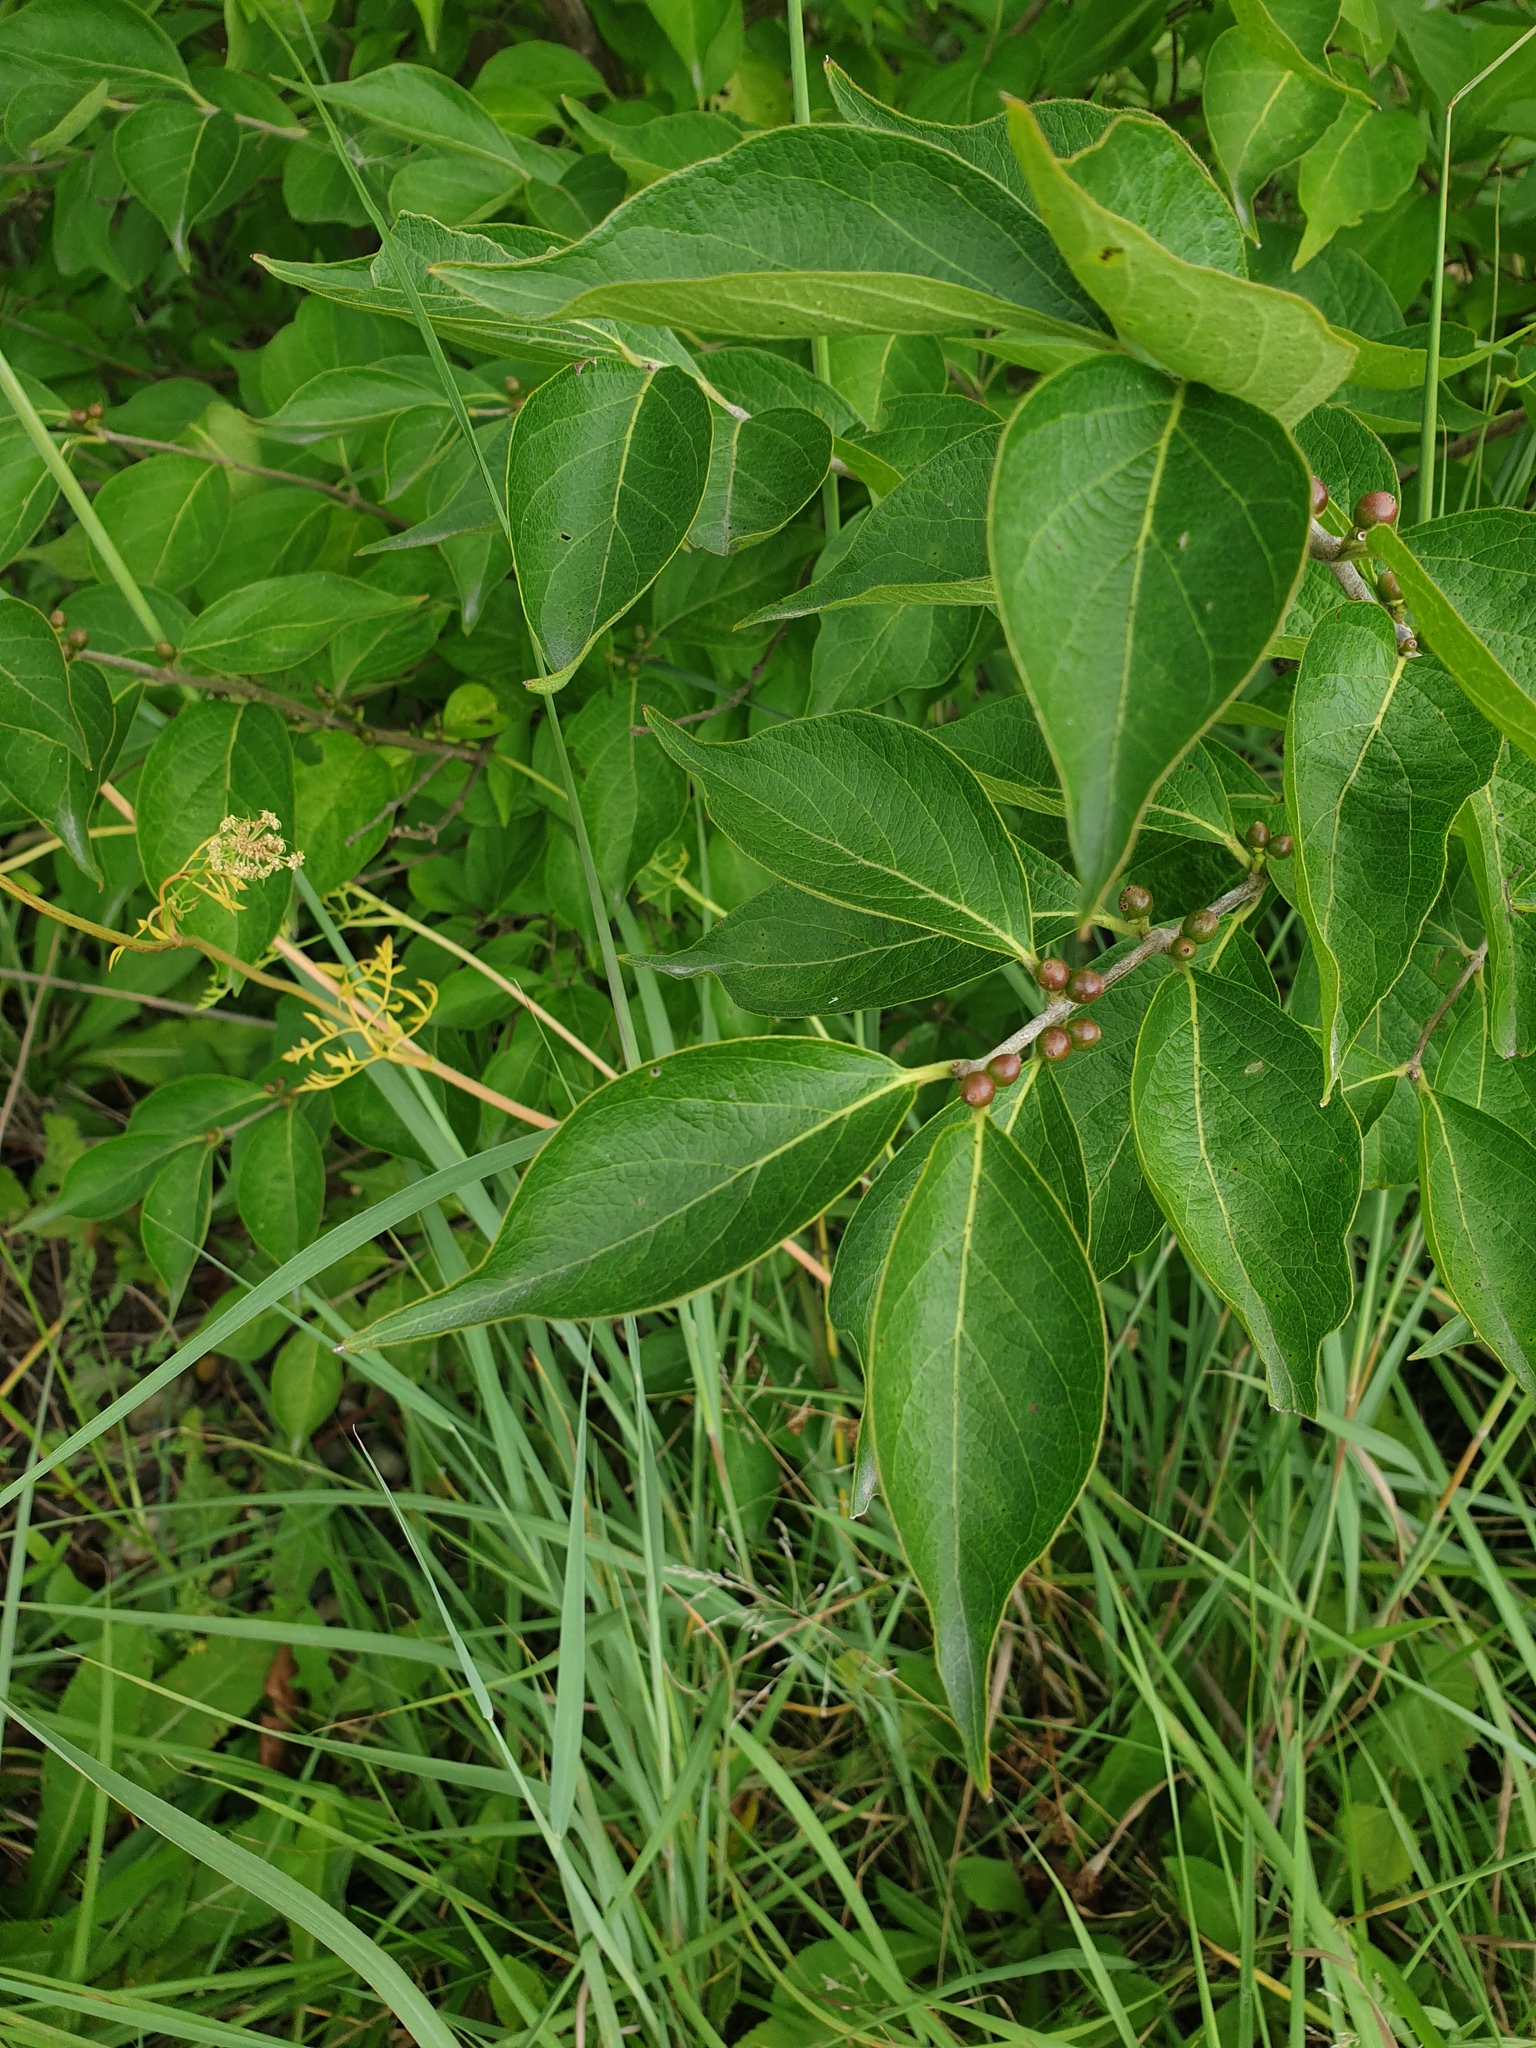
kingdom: Plantae
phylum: Tracheophyta
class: Magnoliopsida
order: Dipsacales
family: Caprifoliaceae
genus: Lonicera
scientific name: Lonicera maackii
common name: Amur honeysuckle
